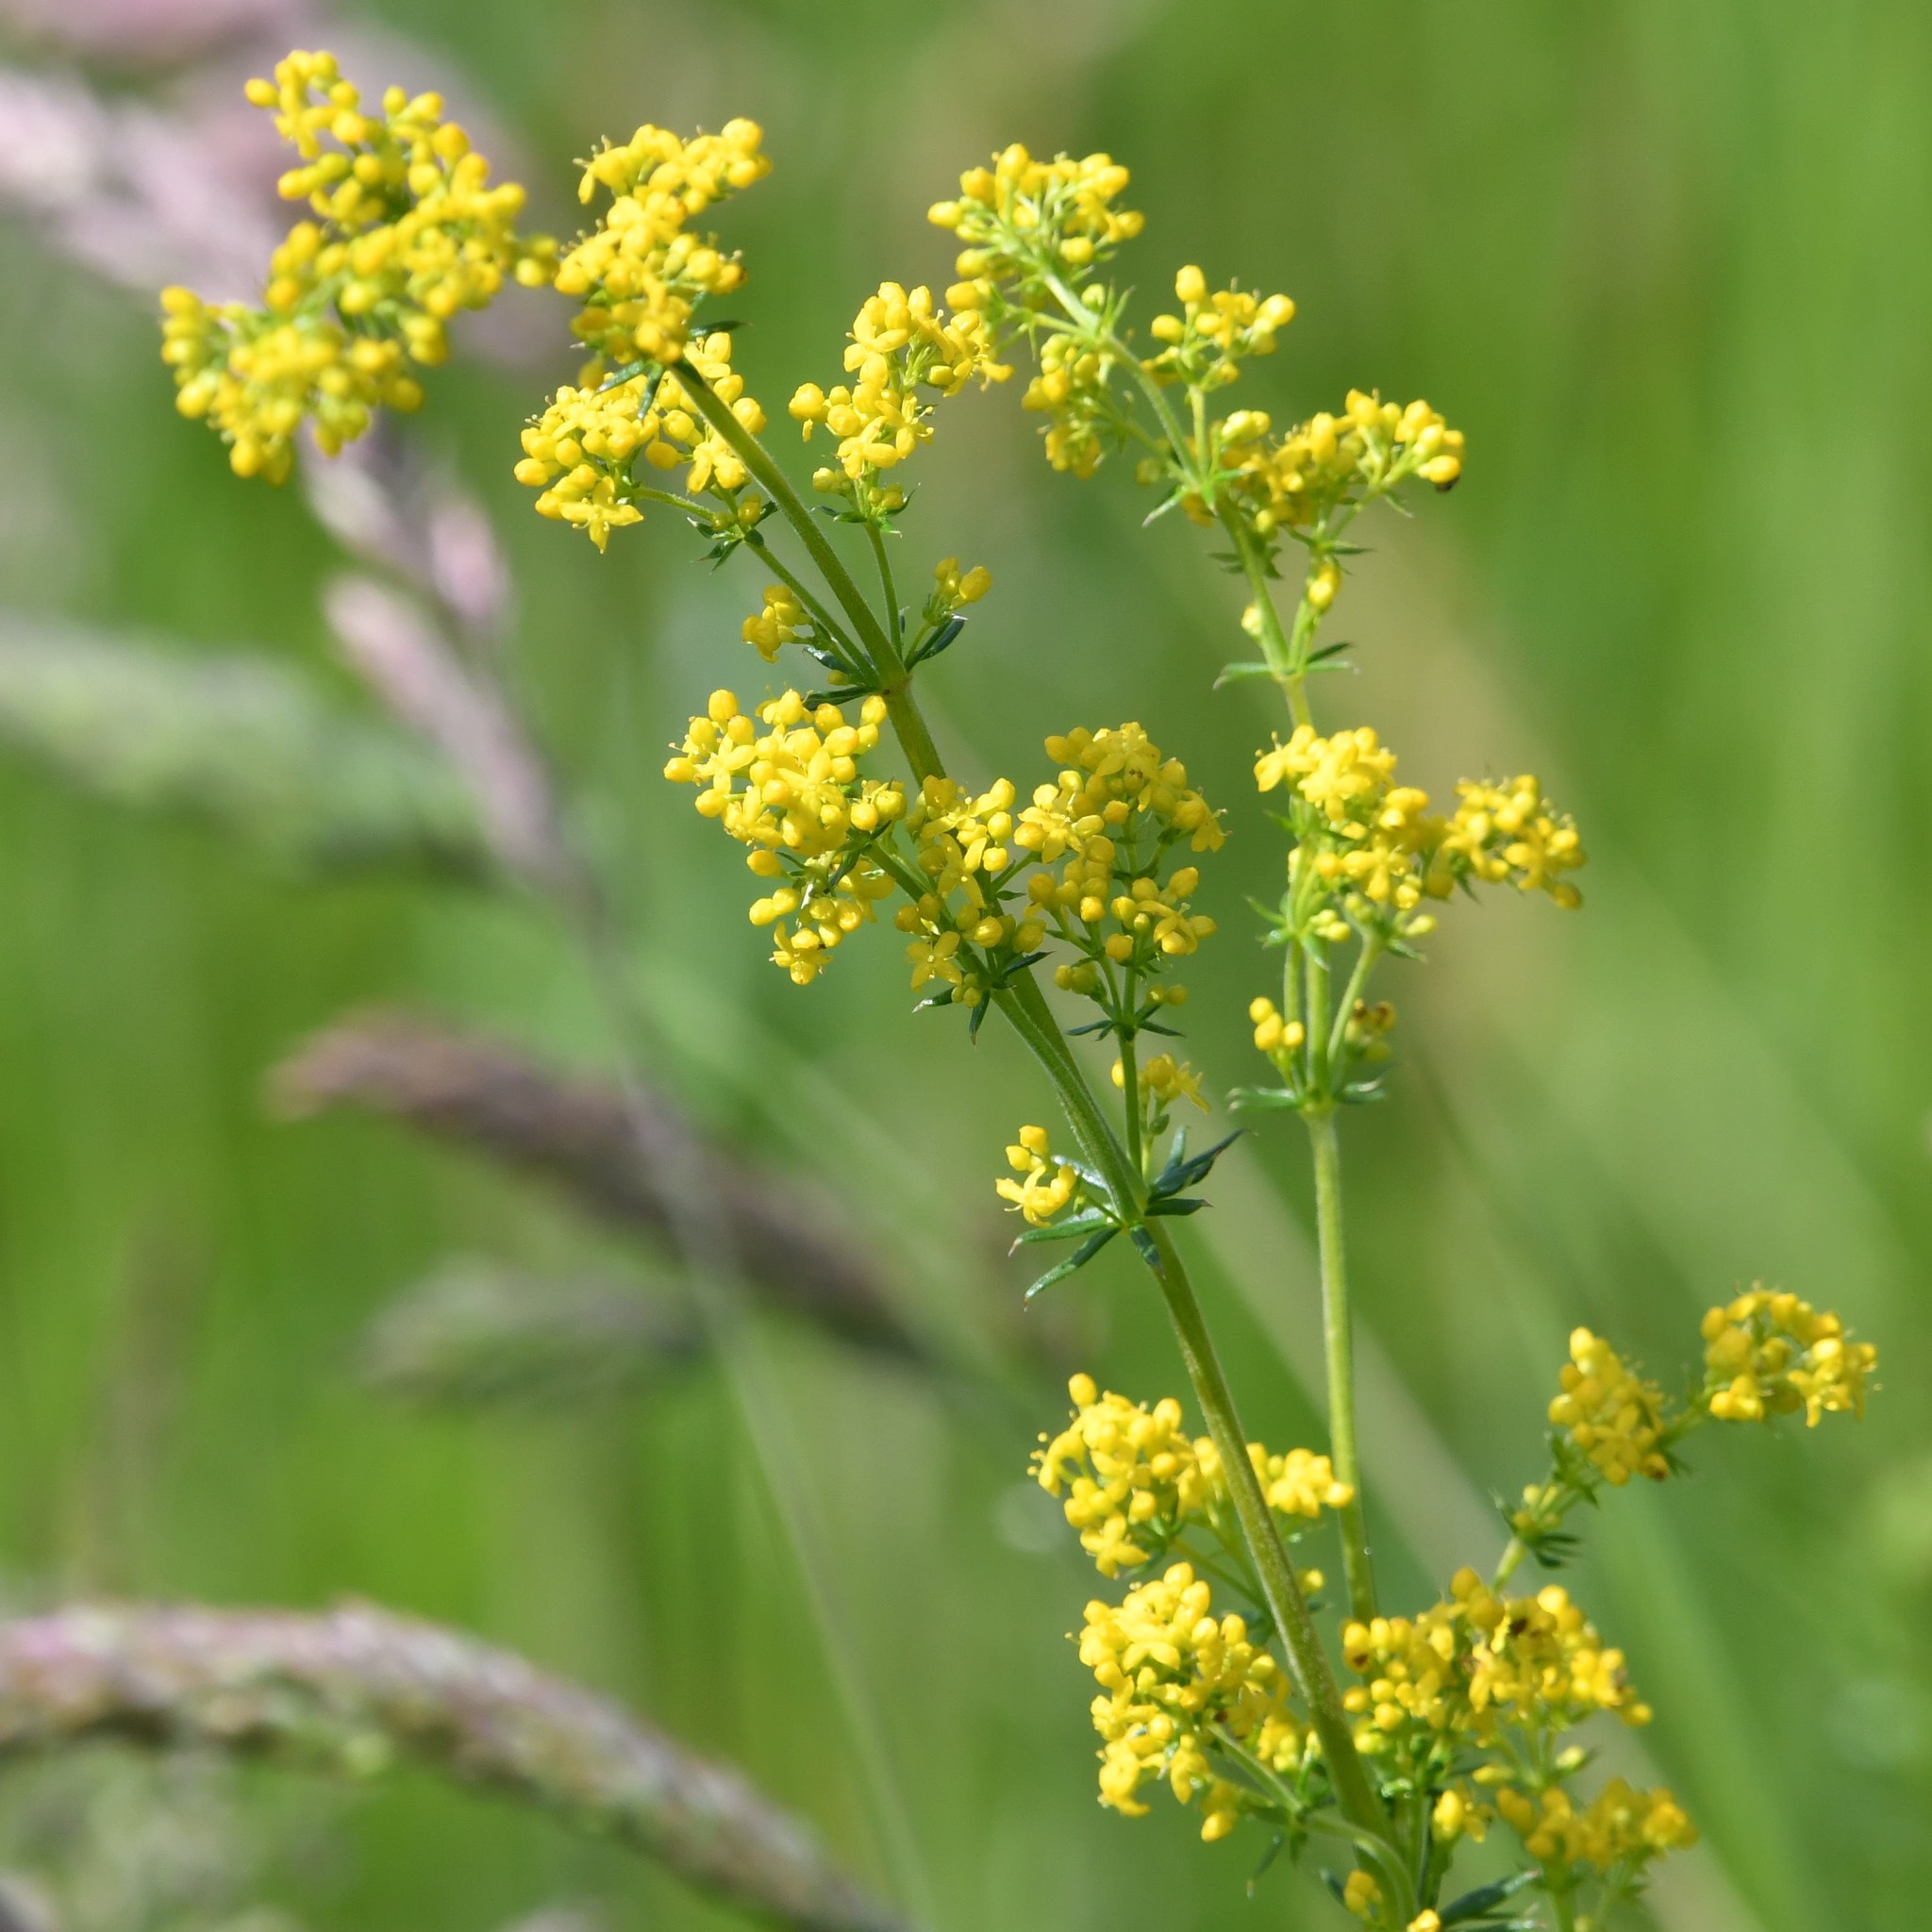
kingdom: Plantae
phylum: Tracheophyta
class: Magnoliopsida
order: Gentianales
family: Rubiaceae
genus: Galium
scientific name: Galium verum
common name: Lady's bedstraw
